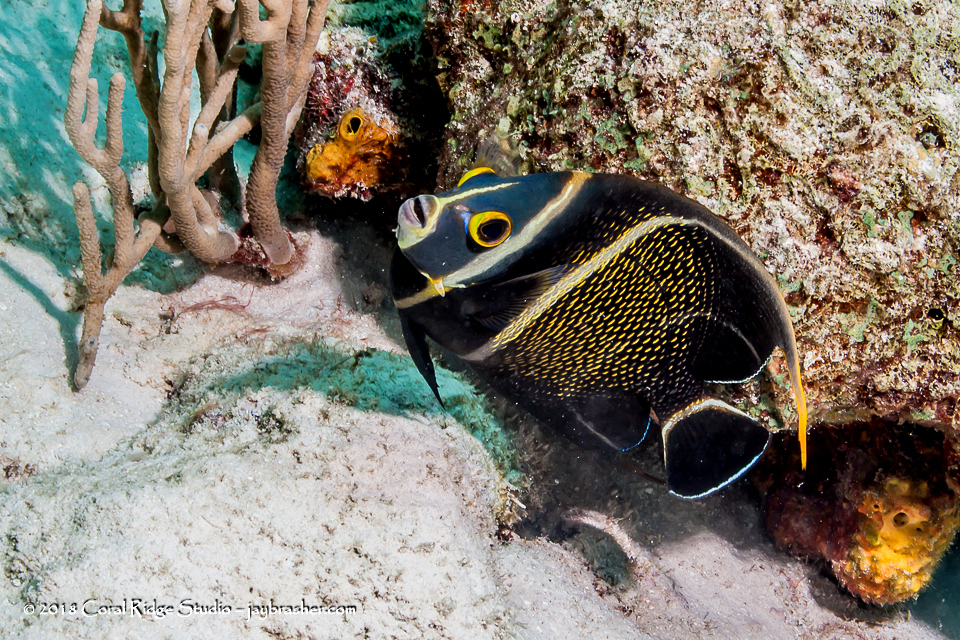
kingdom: Animalia
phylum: Chordata
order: Perciformes
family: Pomacanthidae
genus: Pomacanthus
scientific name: Pomacanthus paru
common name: French angelfish
